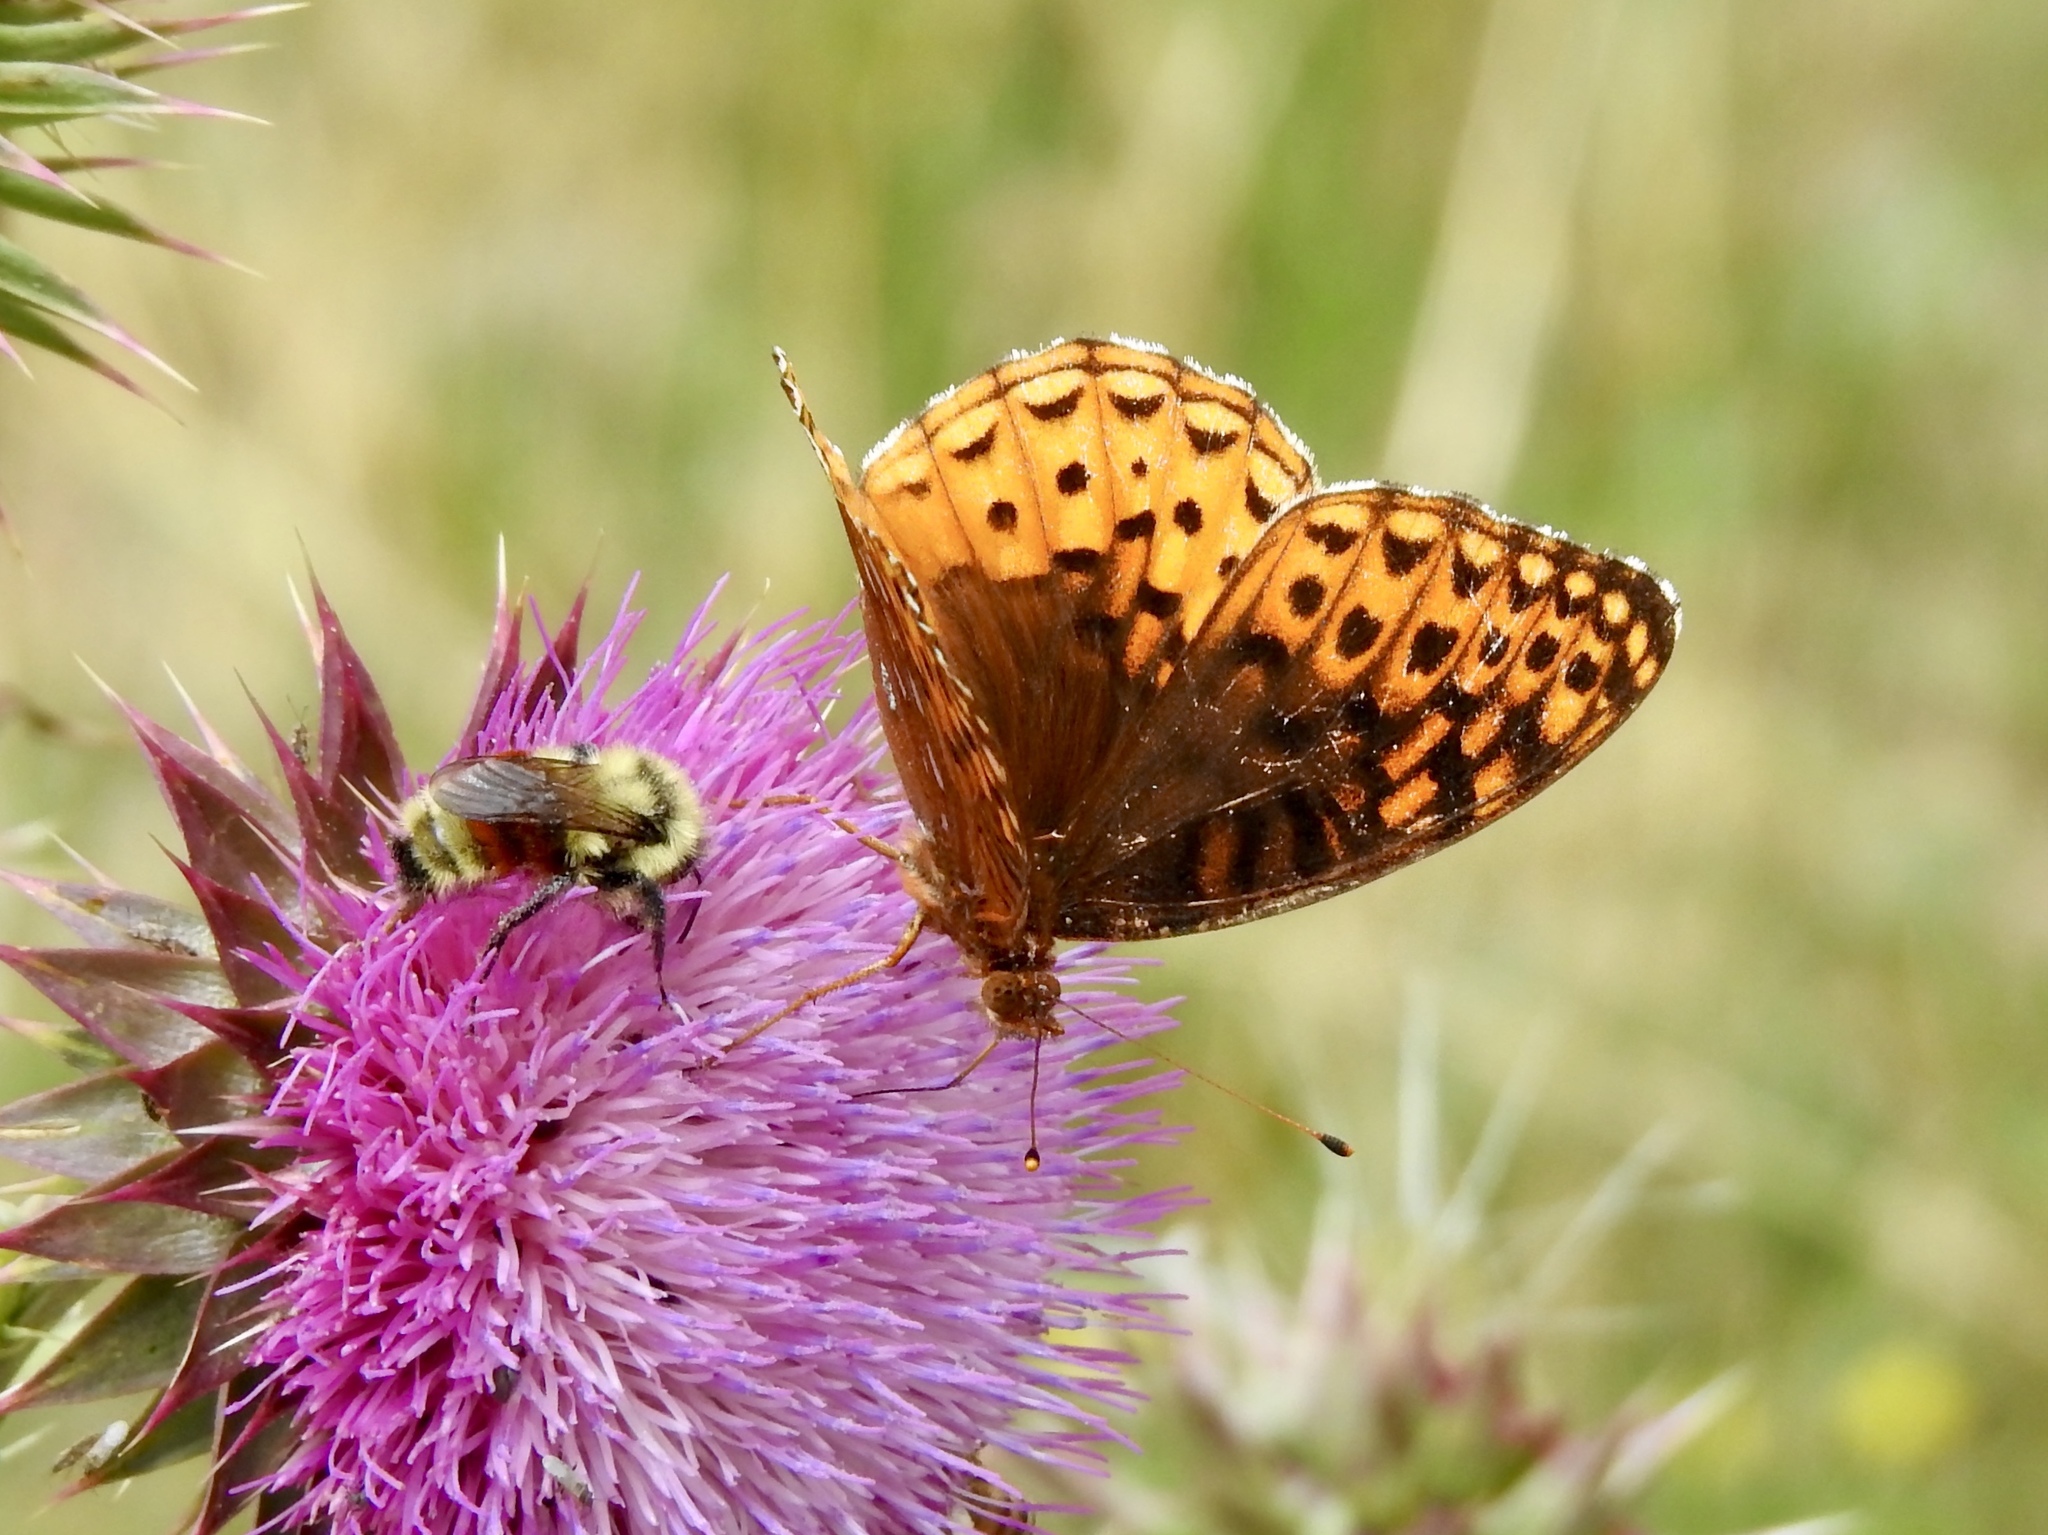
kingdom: Animalia
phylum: Arthropoda
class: Insecta
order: Lepidoptera
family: Nymphalidae
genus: Speyeria
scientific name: Speyeria atlantis
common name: Atlantis fritillary
